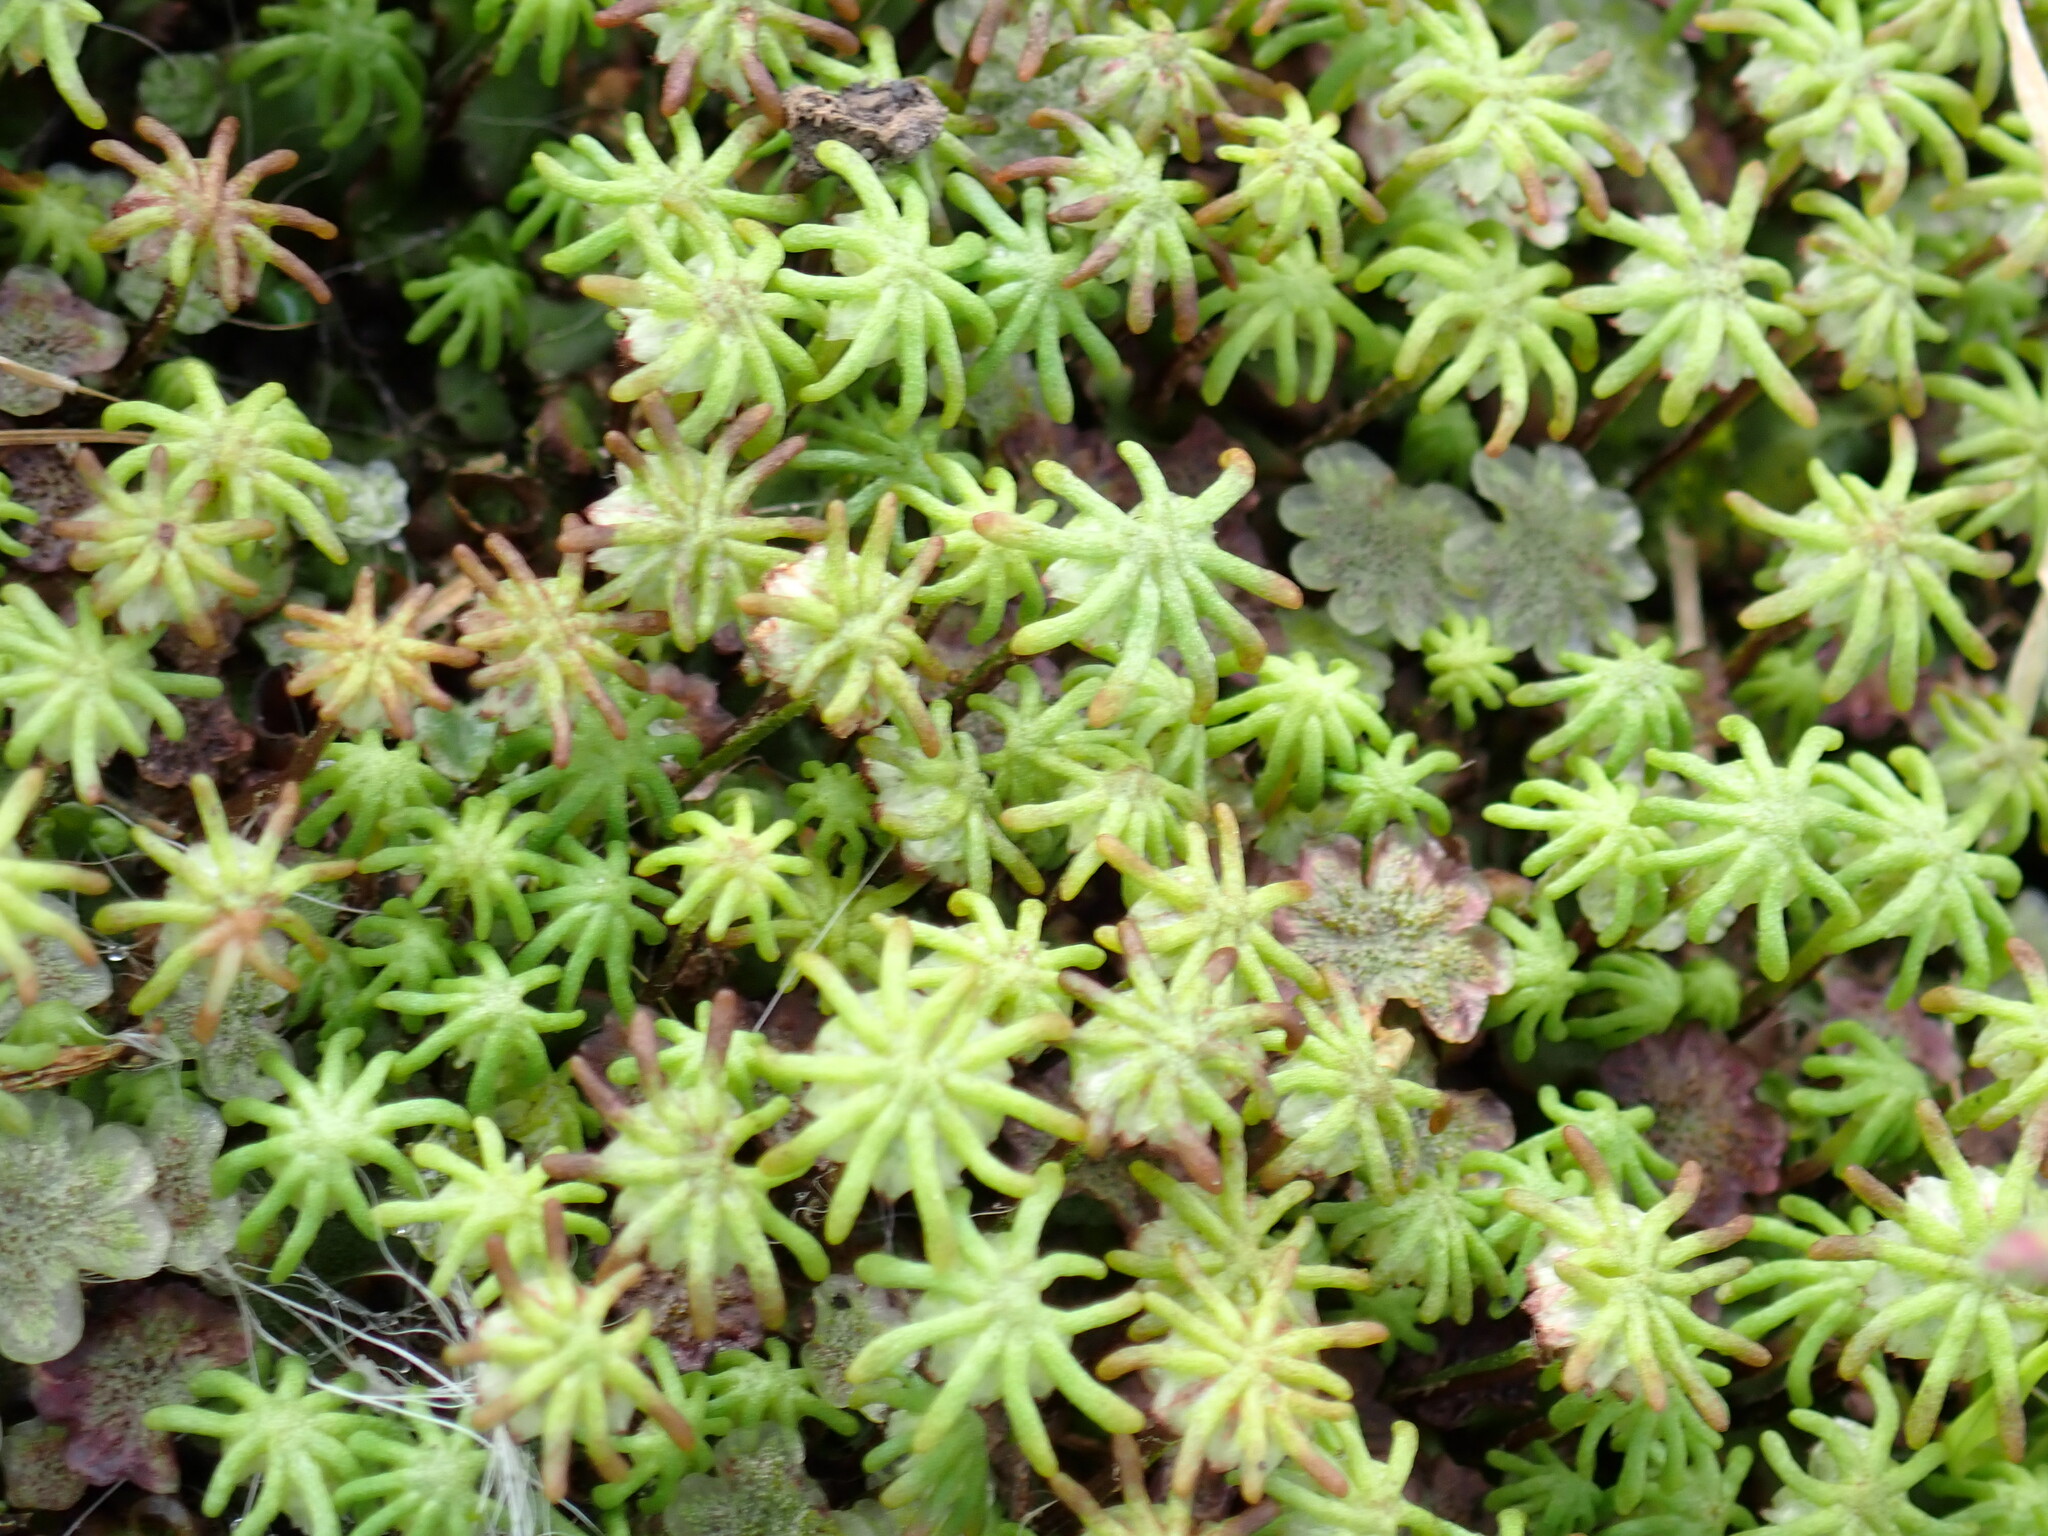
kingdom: Plantae
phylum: Marchantiophyta
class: Marchantiopsida
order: Marchantiales
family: Marchantiaceae
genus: Marchantia
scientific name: Marchantia polymorpha
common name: Common liverwort
